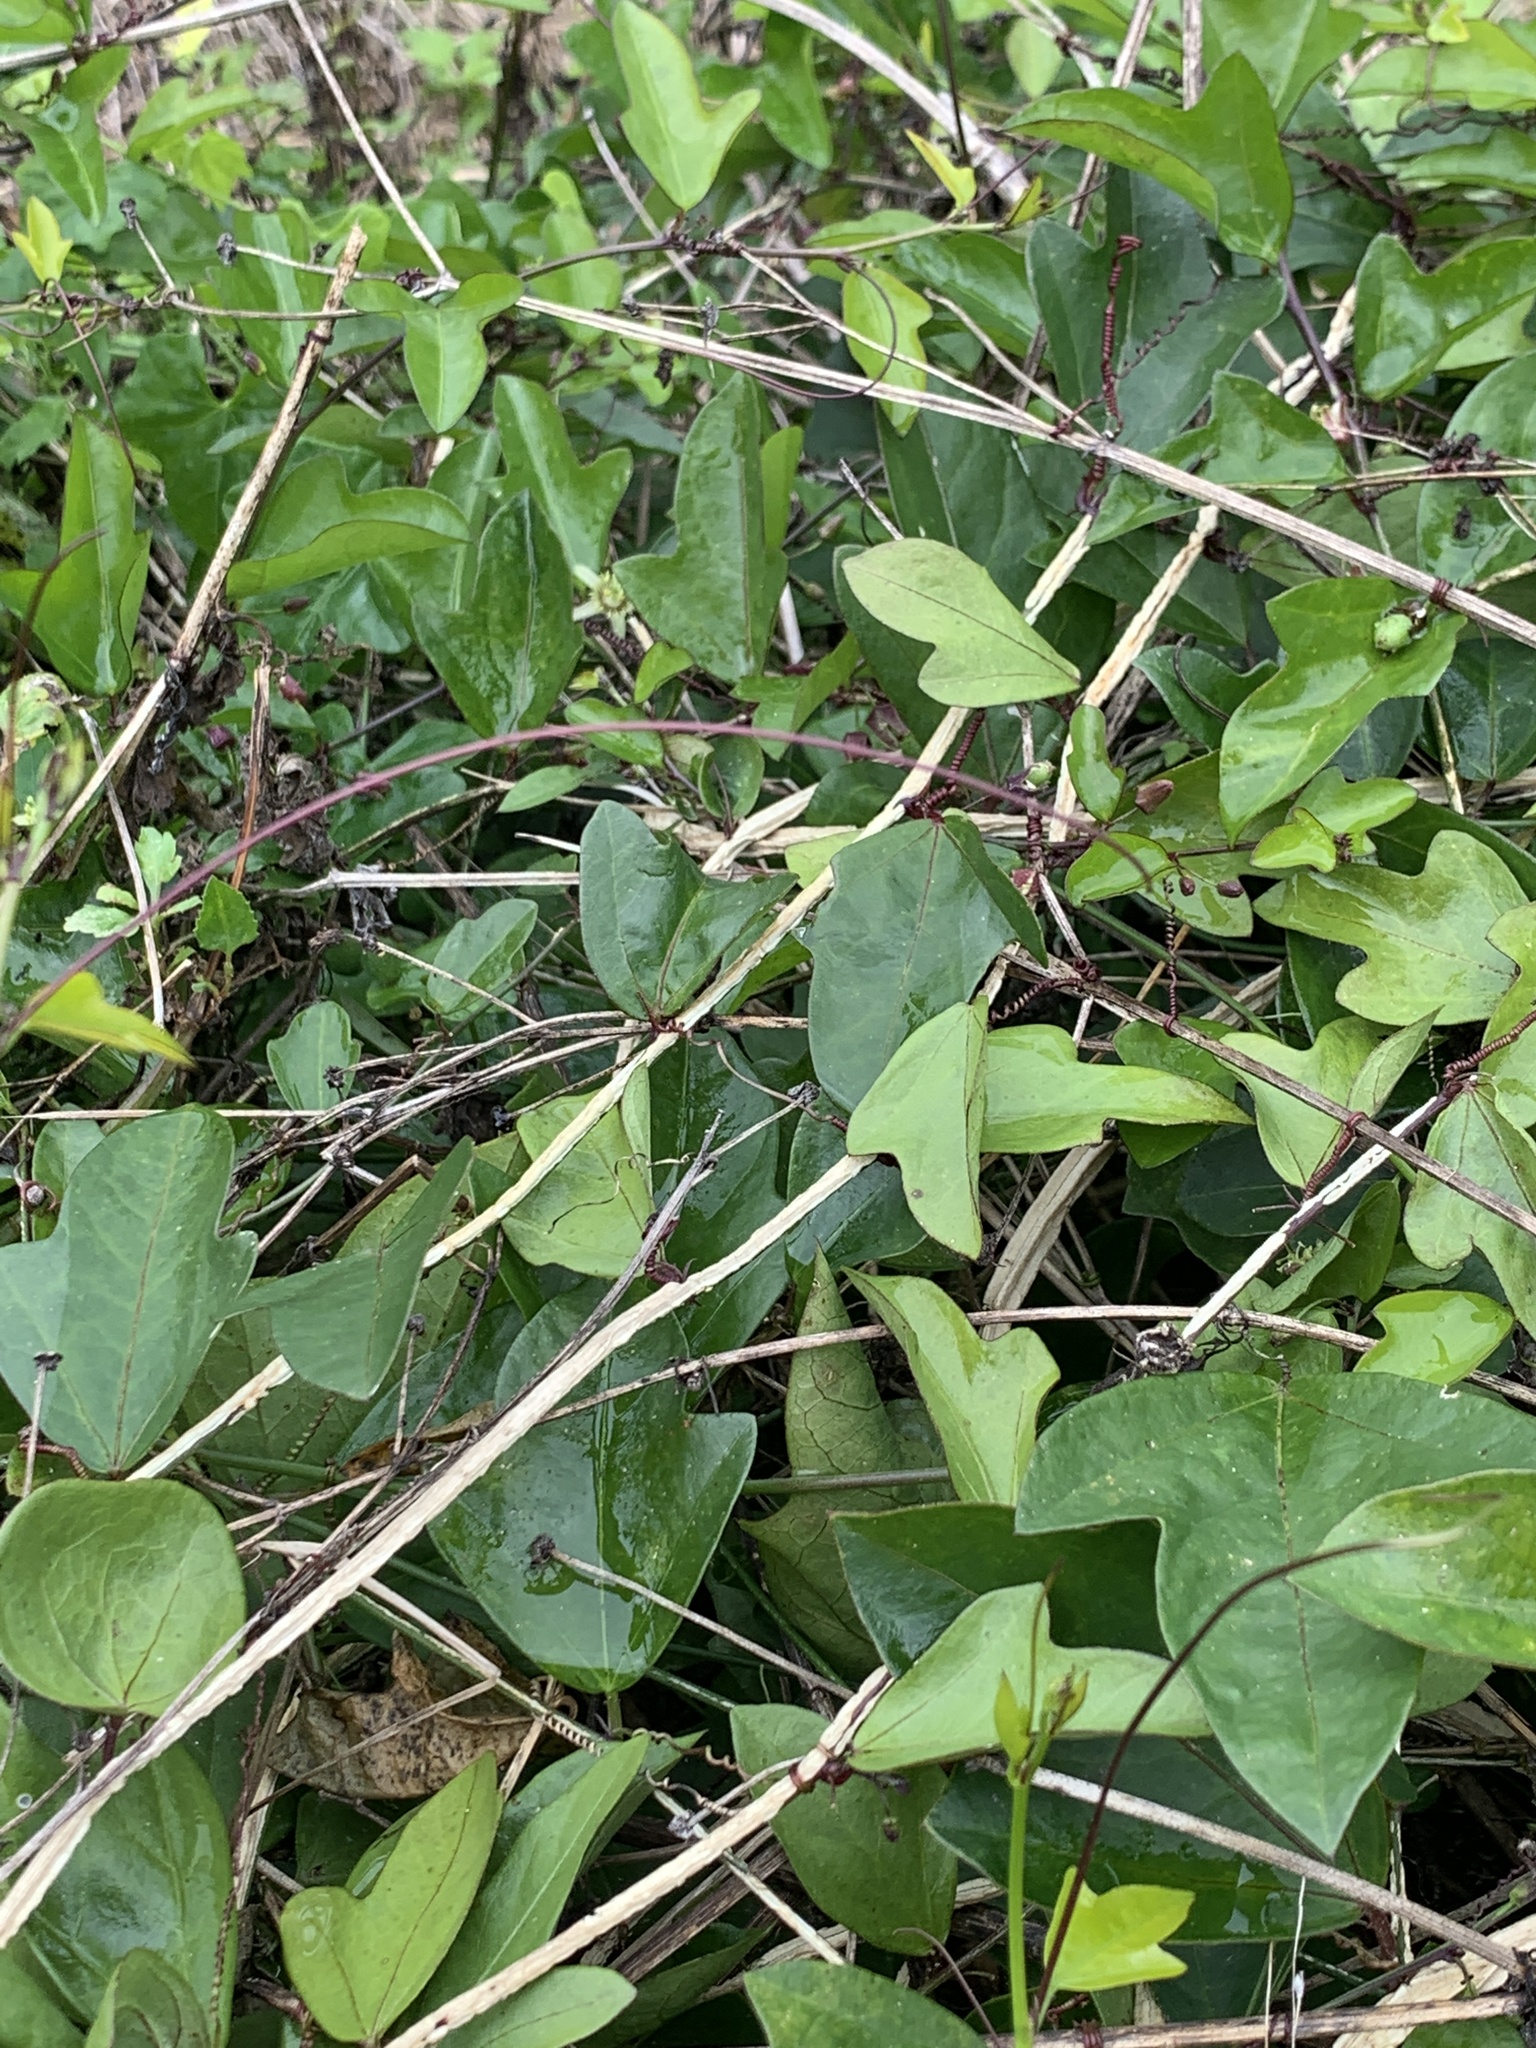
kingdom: Plantae
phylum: Tracheophyta
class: Magnoliopsida
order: Malpighiales
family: Passifloraceae
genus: Passiflora
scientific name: Passiflora pallida
